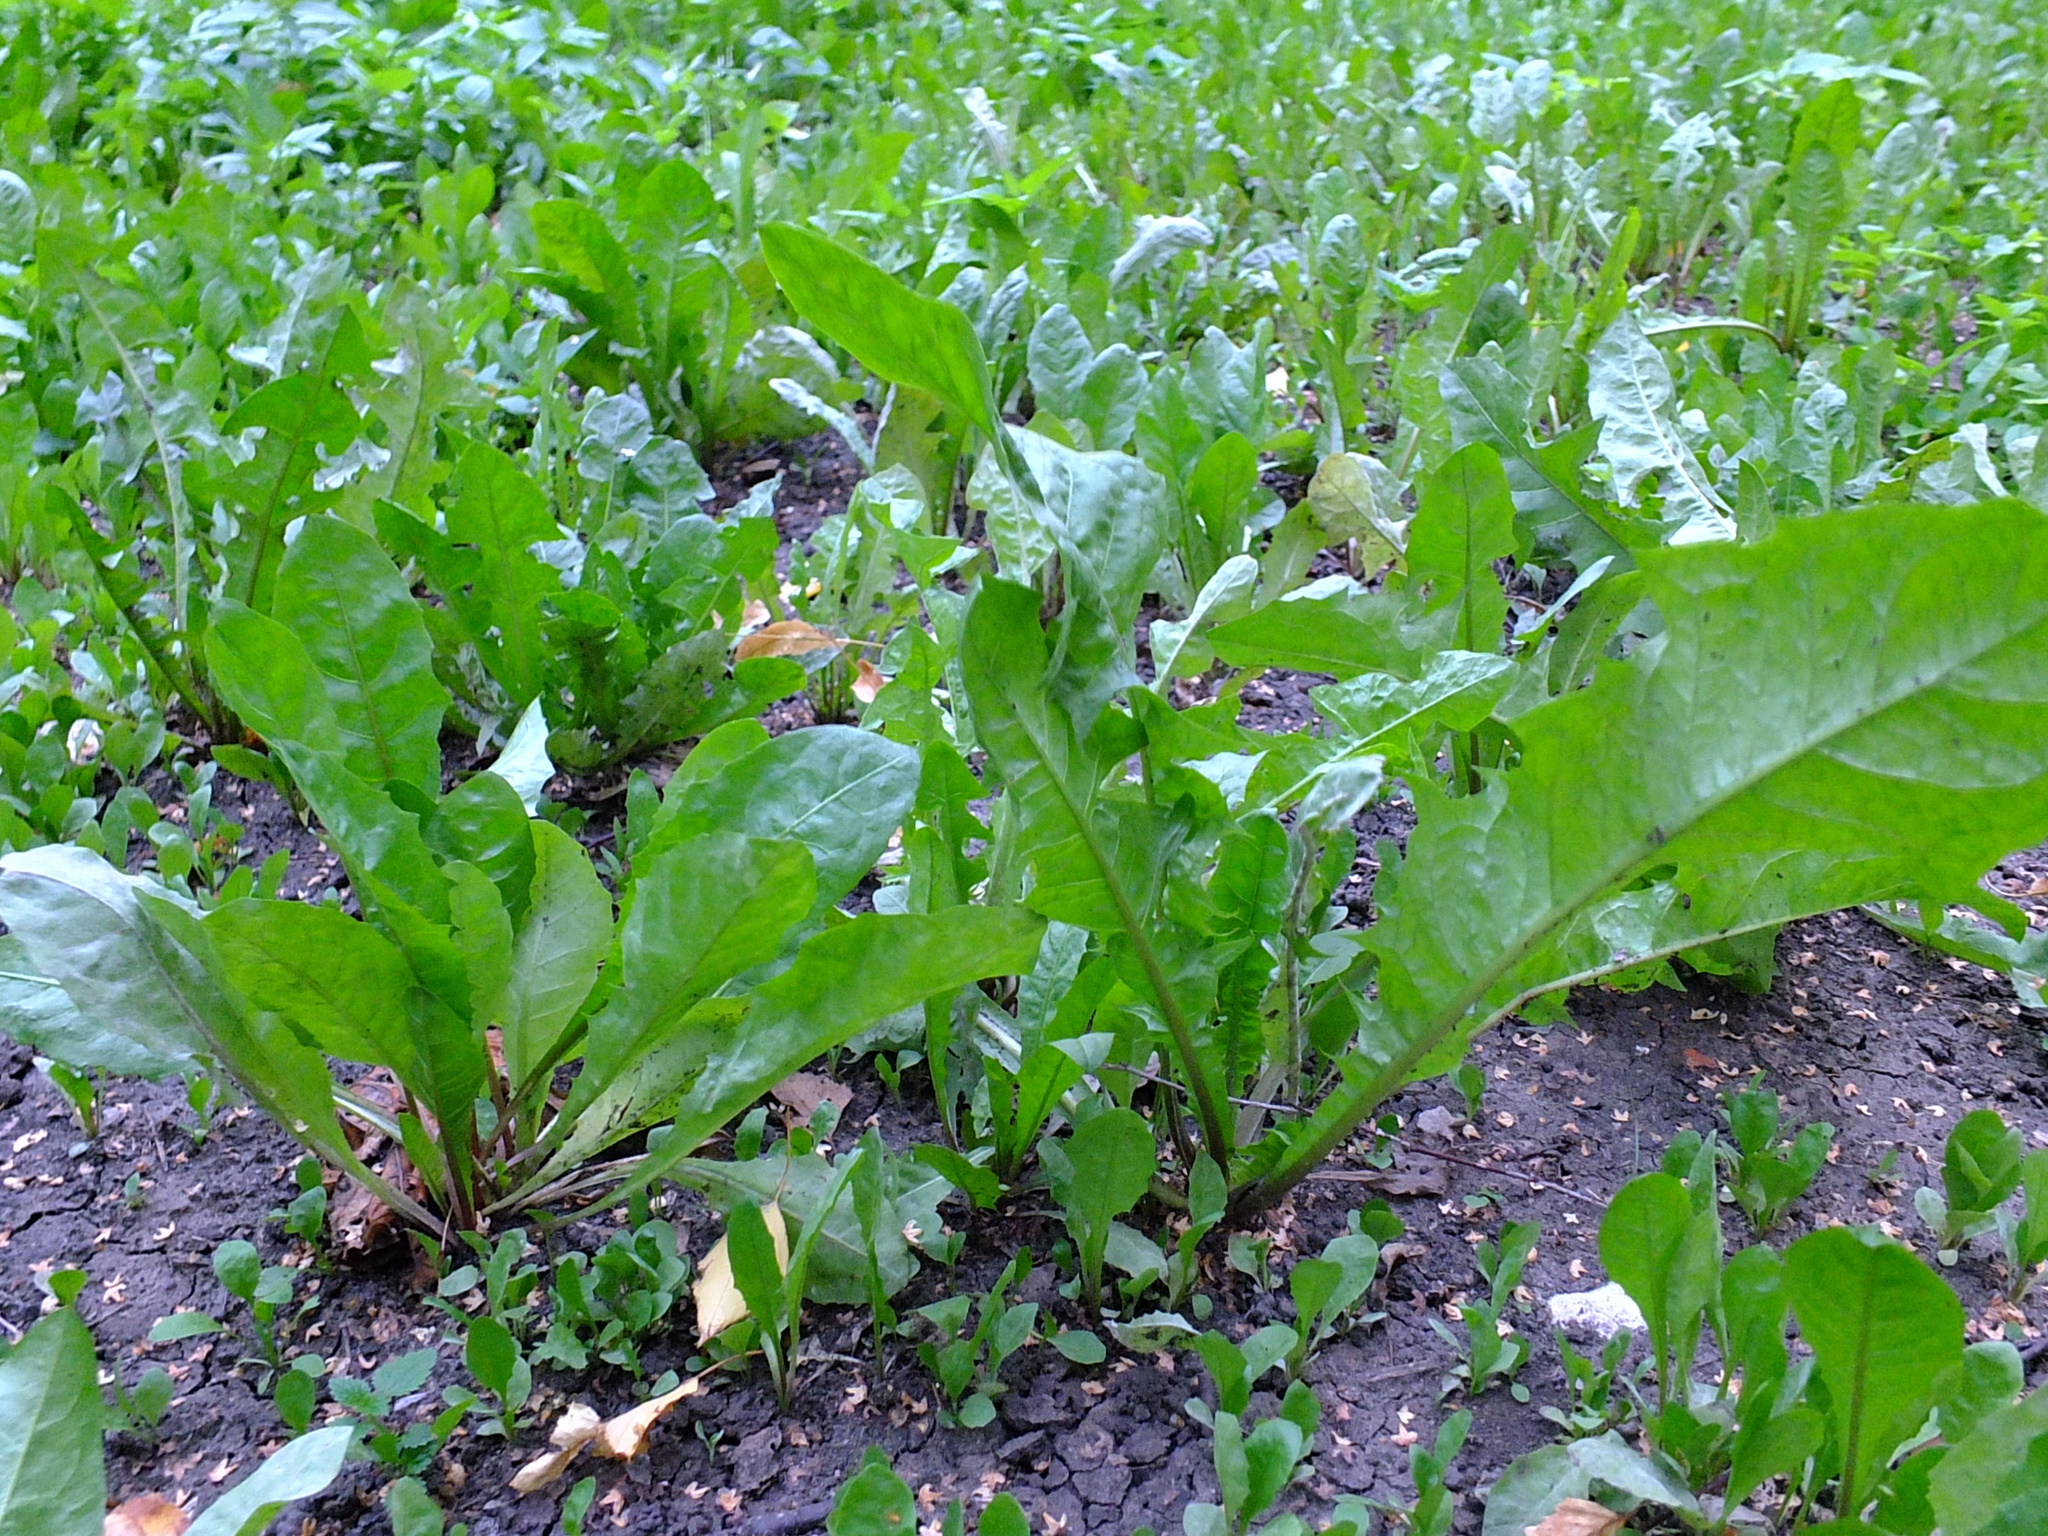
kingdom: Plantae
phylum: Tracheophyta
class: Magnoliopsida
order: Asterales
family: Asteraceae
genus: Taraxacum
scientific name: Taraxacum officinale
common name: Common dandelion
